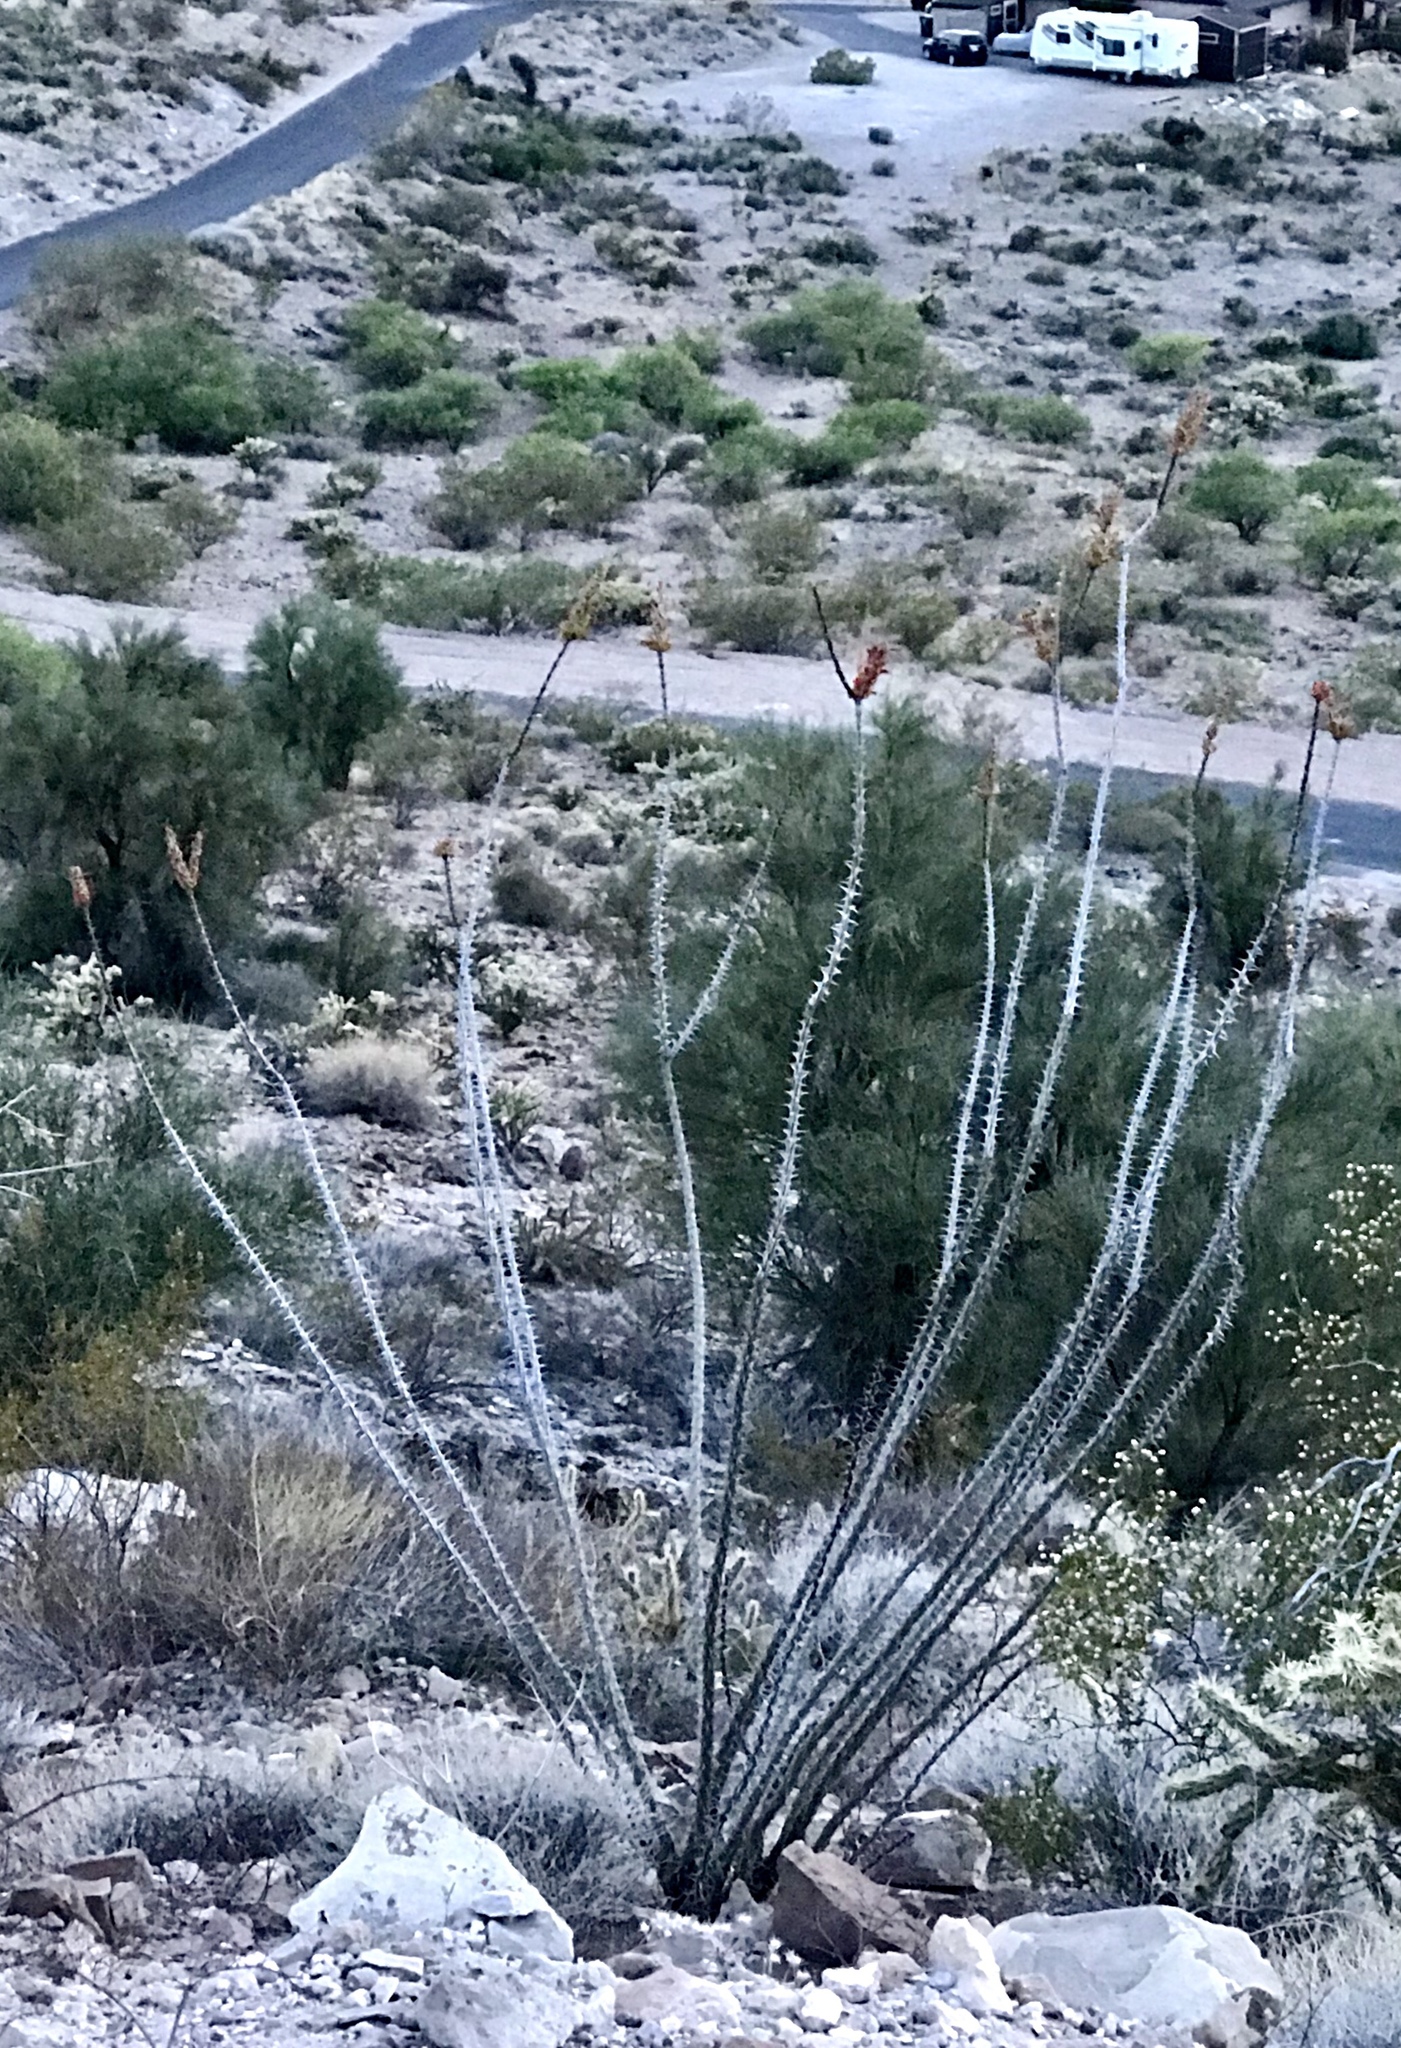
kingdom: Plantae
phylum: Tracheophyta
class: Magnoliopsida
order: Ericales
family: Fouquieriaceae
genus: Fouquieria
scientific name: Fouquieria splendens
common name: Vine-cactus
